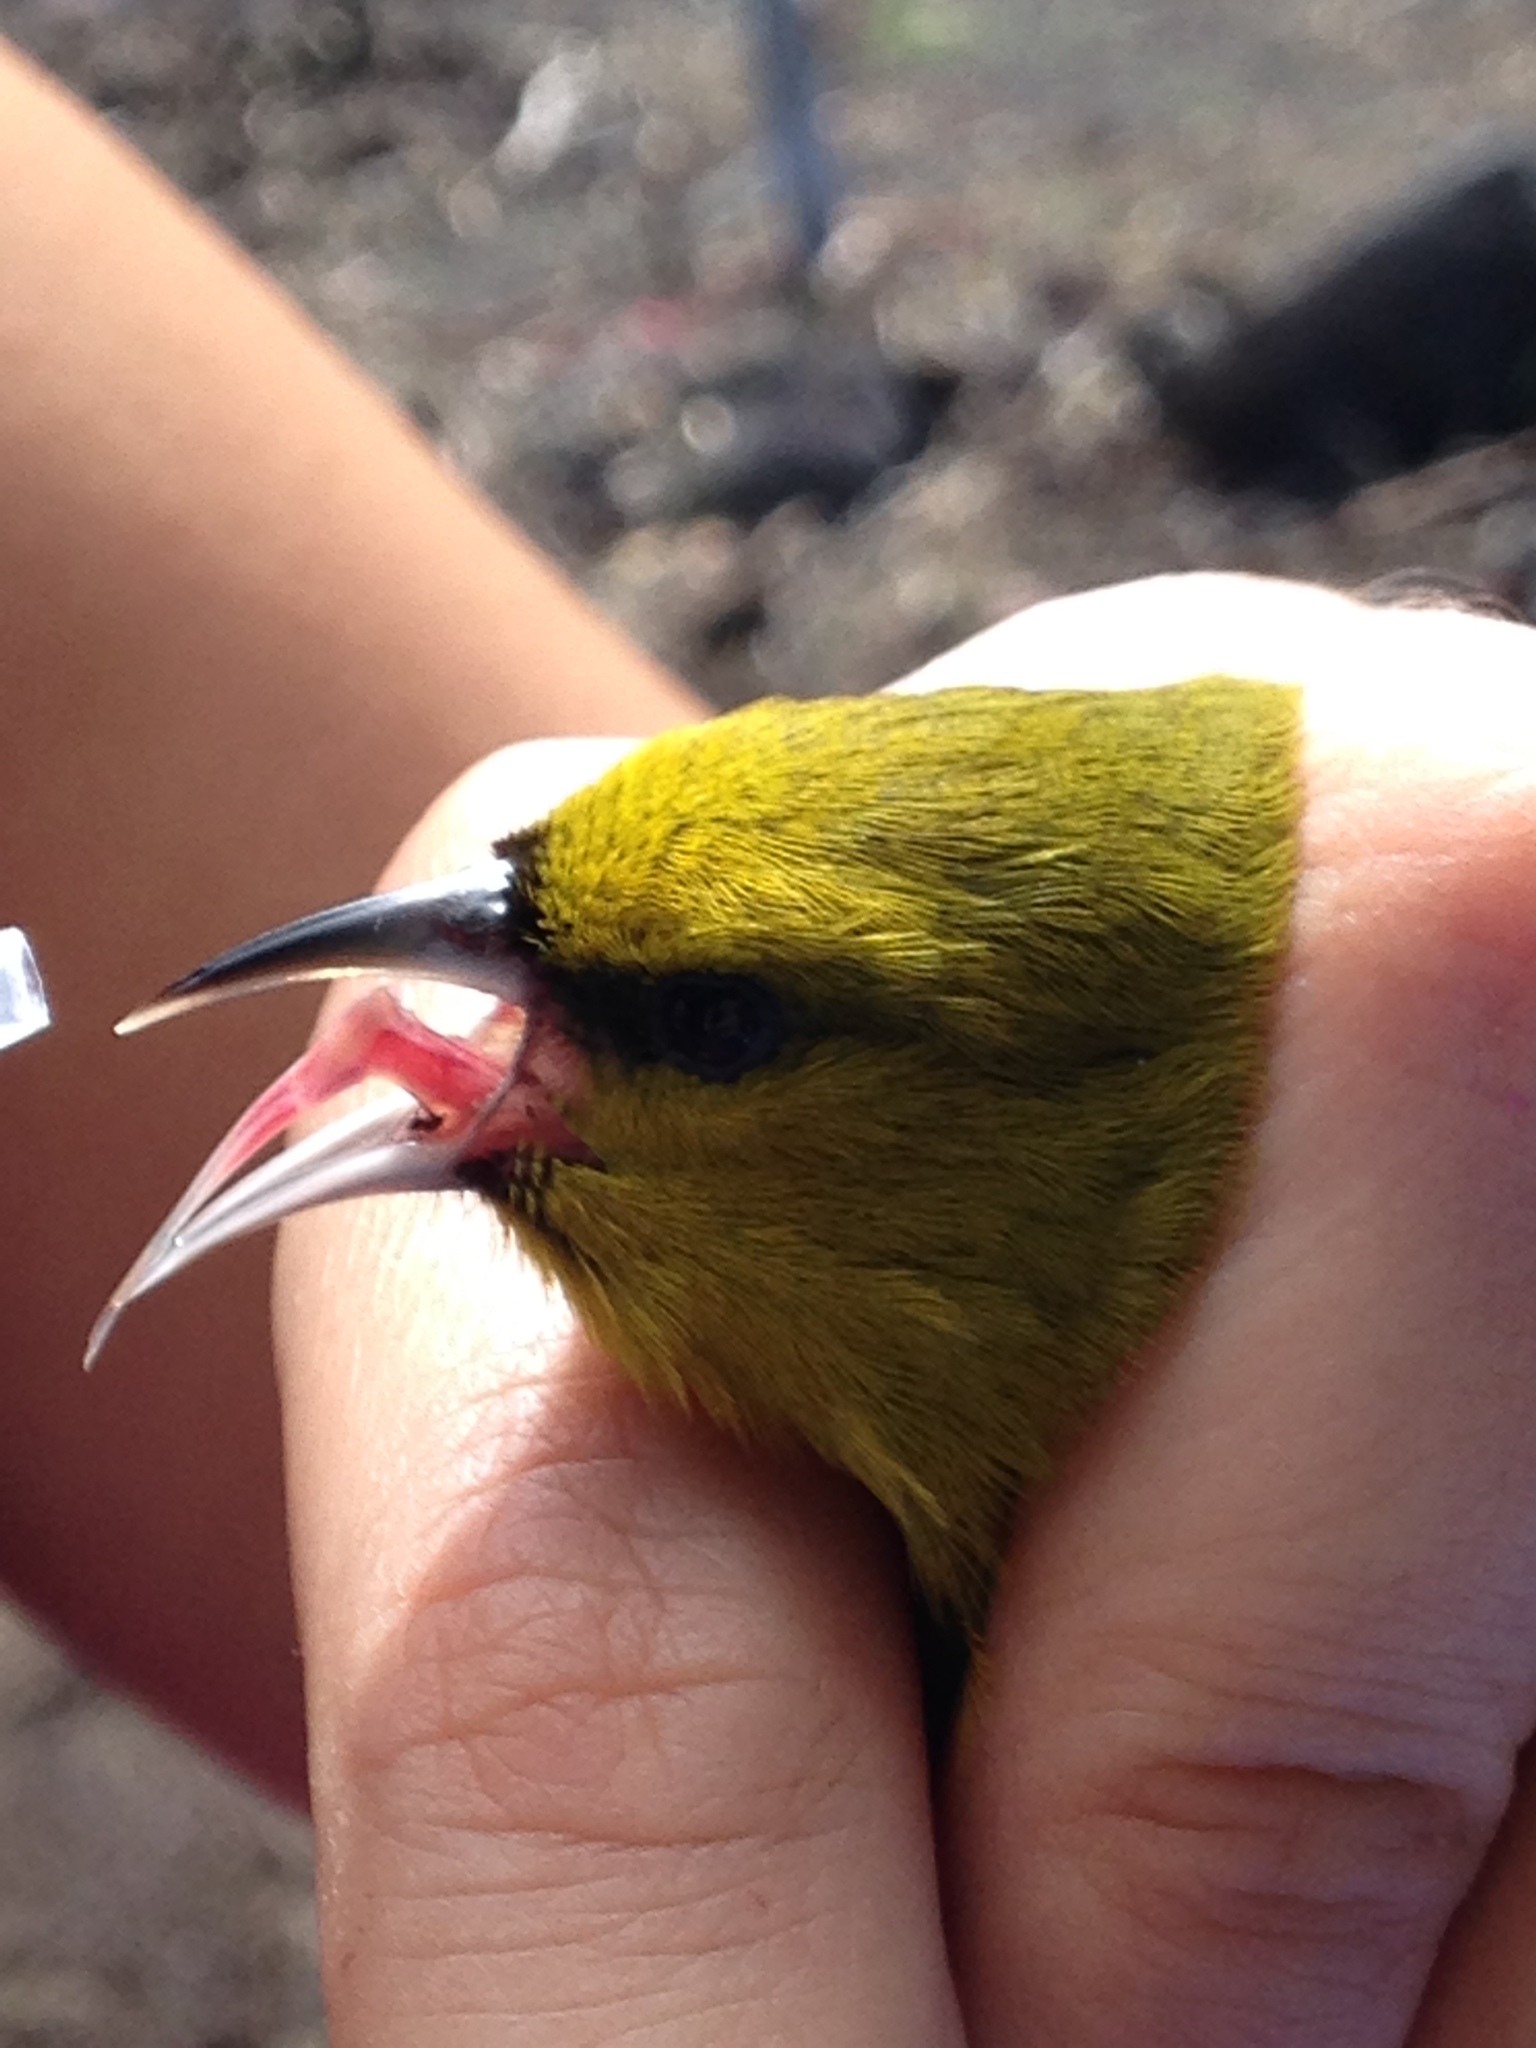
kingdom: Animalia
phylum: Chordata
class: Aves
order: Passeriformes
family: Fringillidae
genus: Chlorodrepanis
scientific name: Chlorodrepanis virens
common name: Hawaii amakihi
